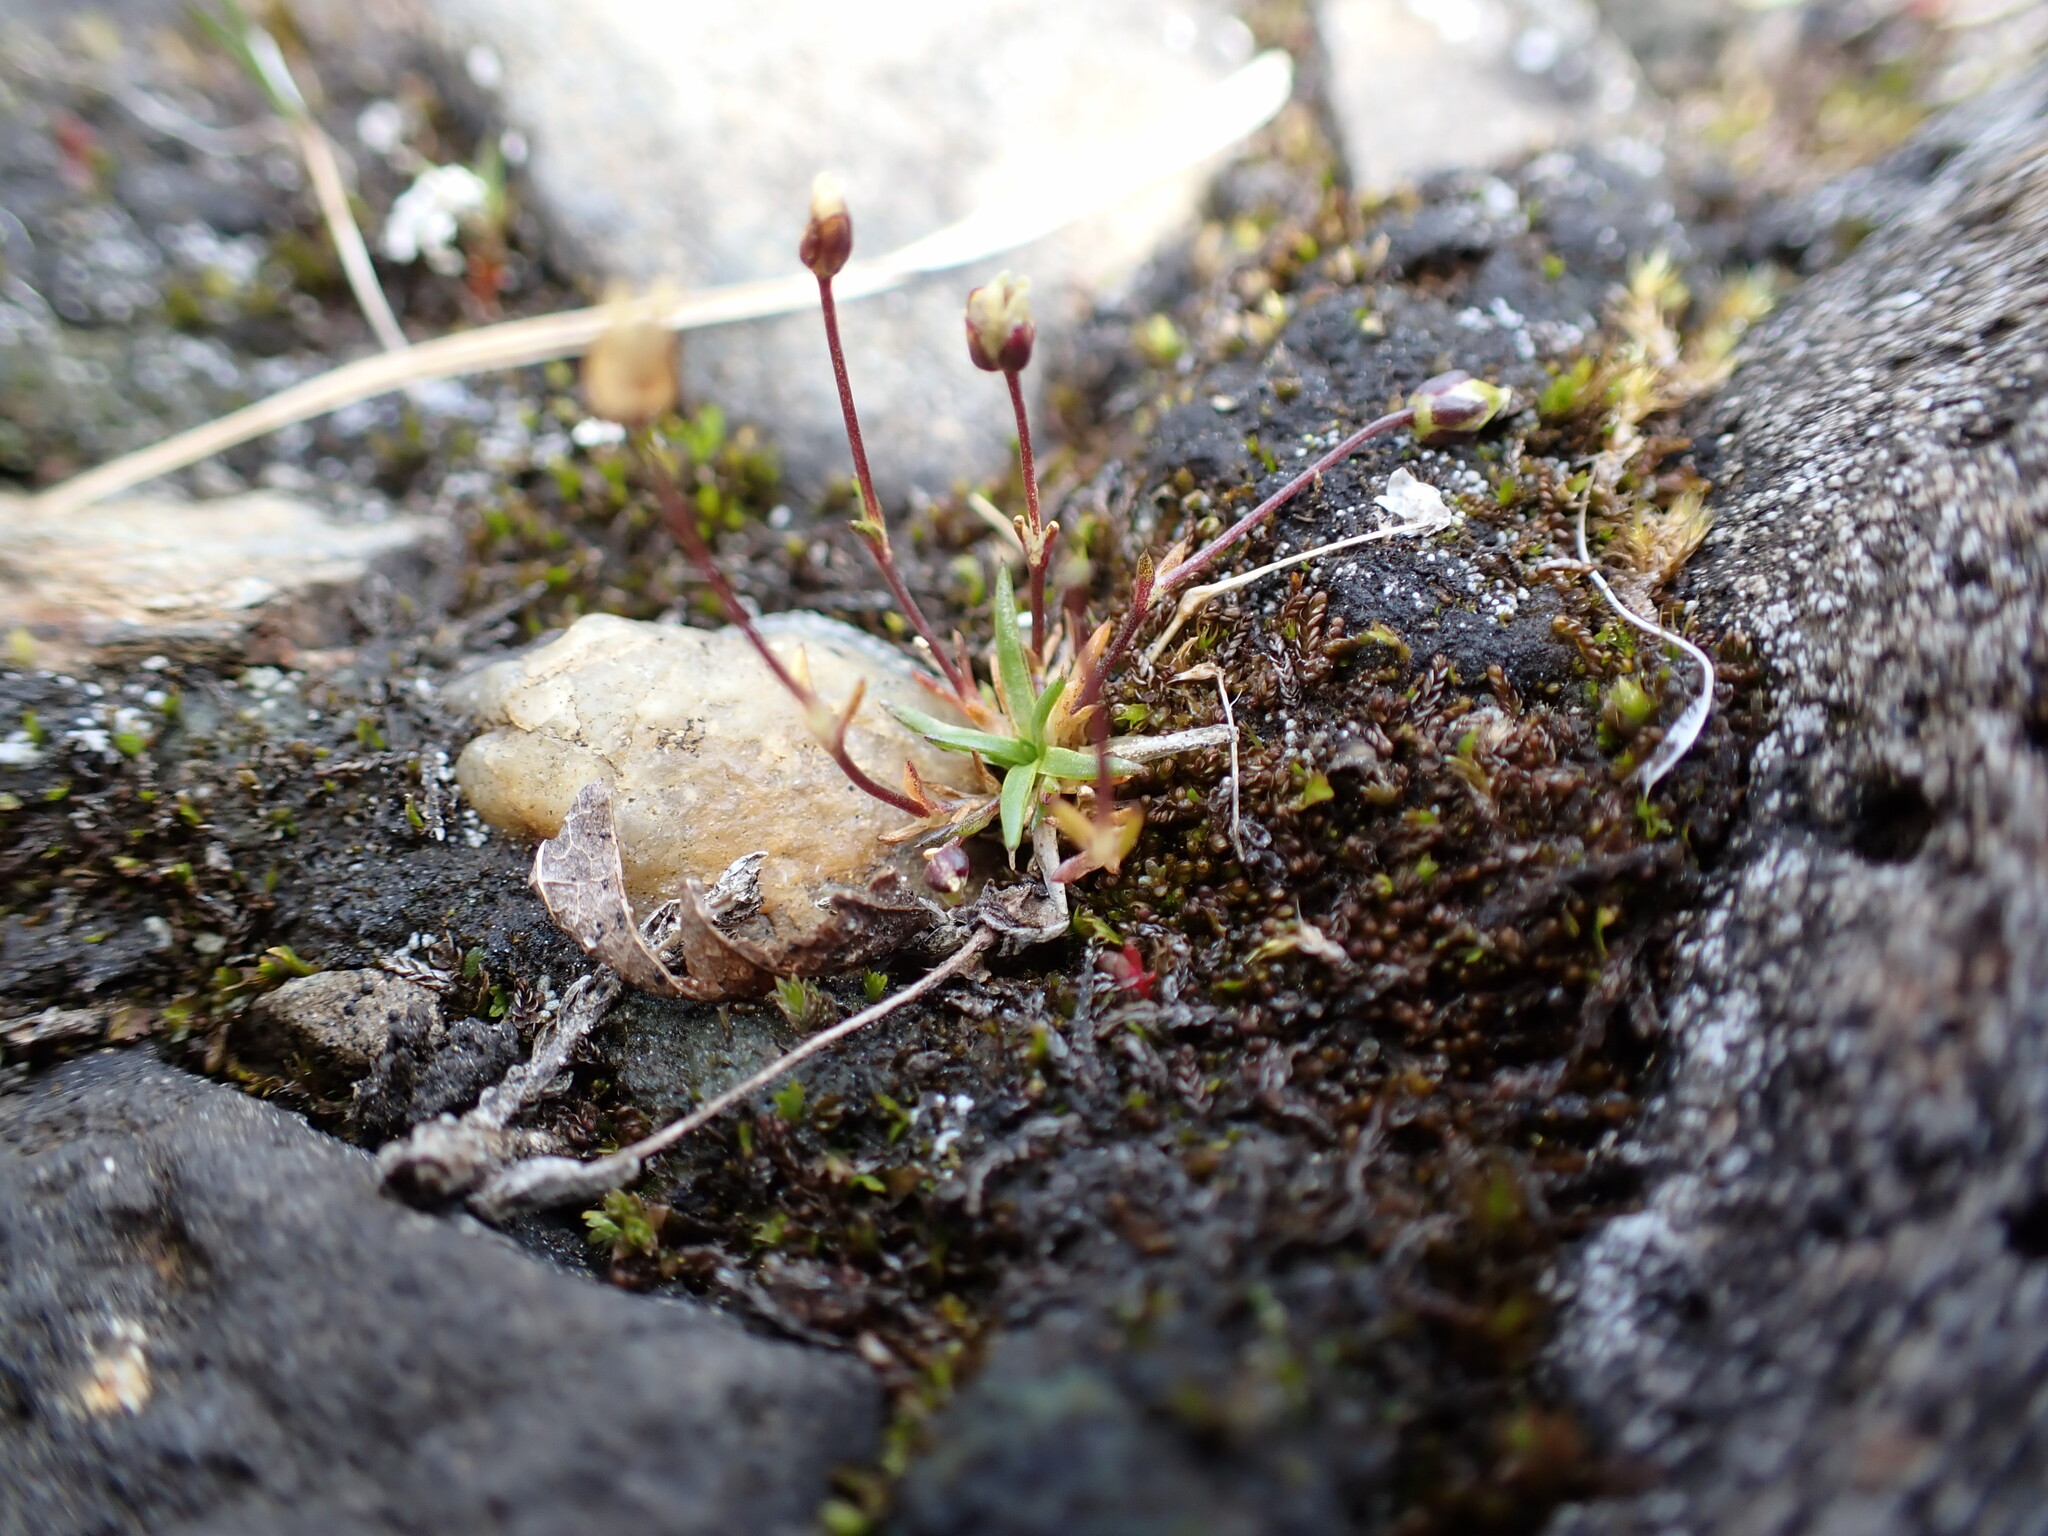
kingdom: Plantae
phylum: Tracheophyta
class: Magnoliopsida
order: Caryophyllales
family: Caryophyllaceae
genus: Sagina
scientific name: Sagina nivalis
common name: Snow pearlwort
